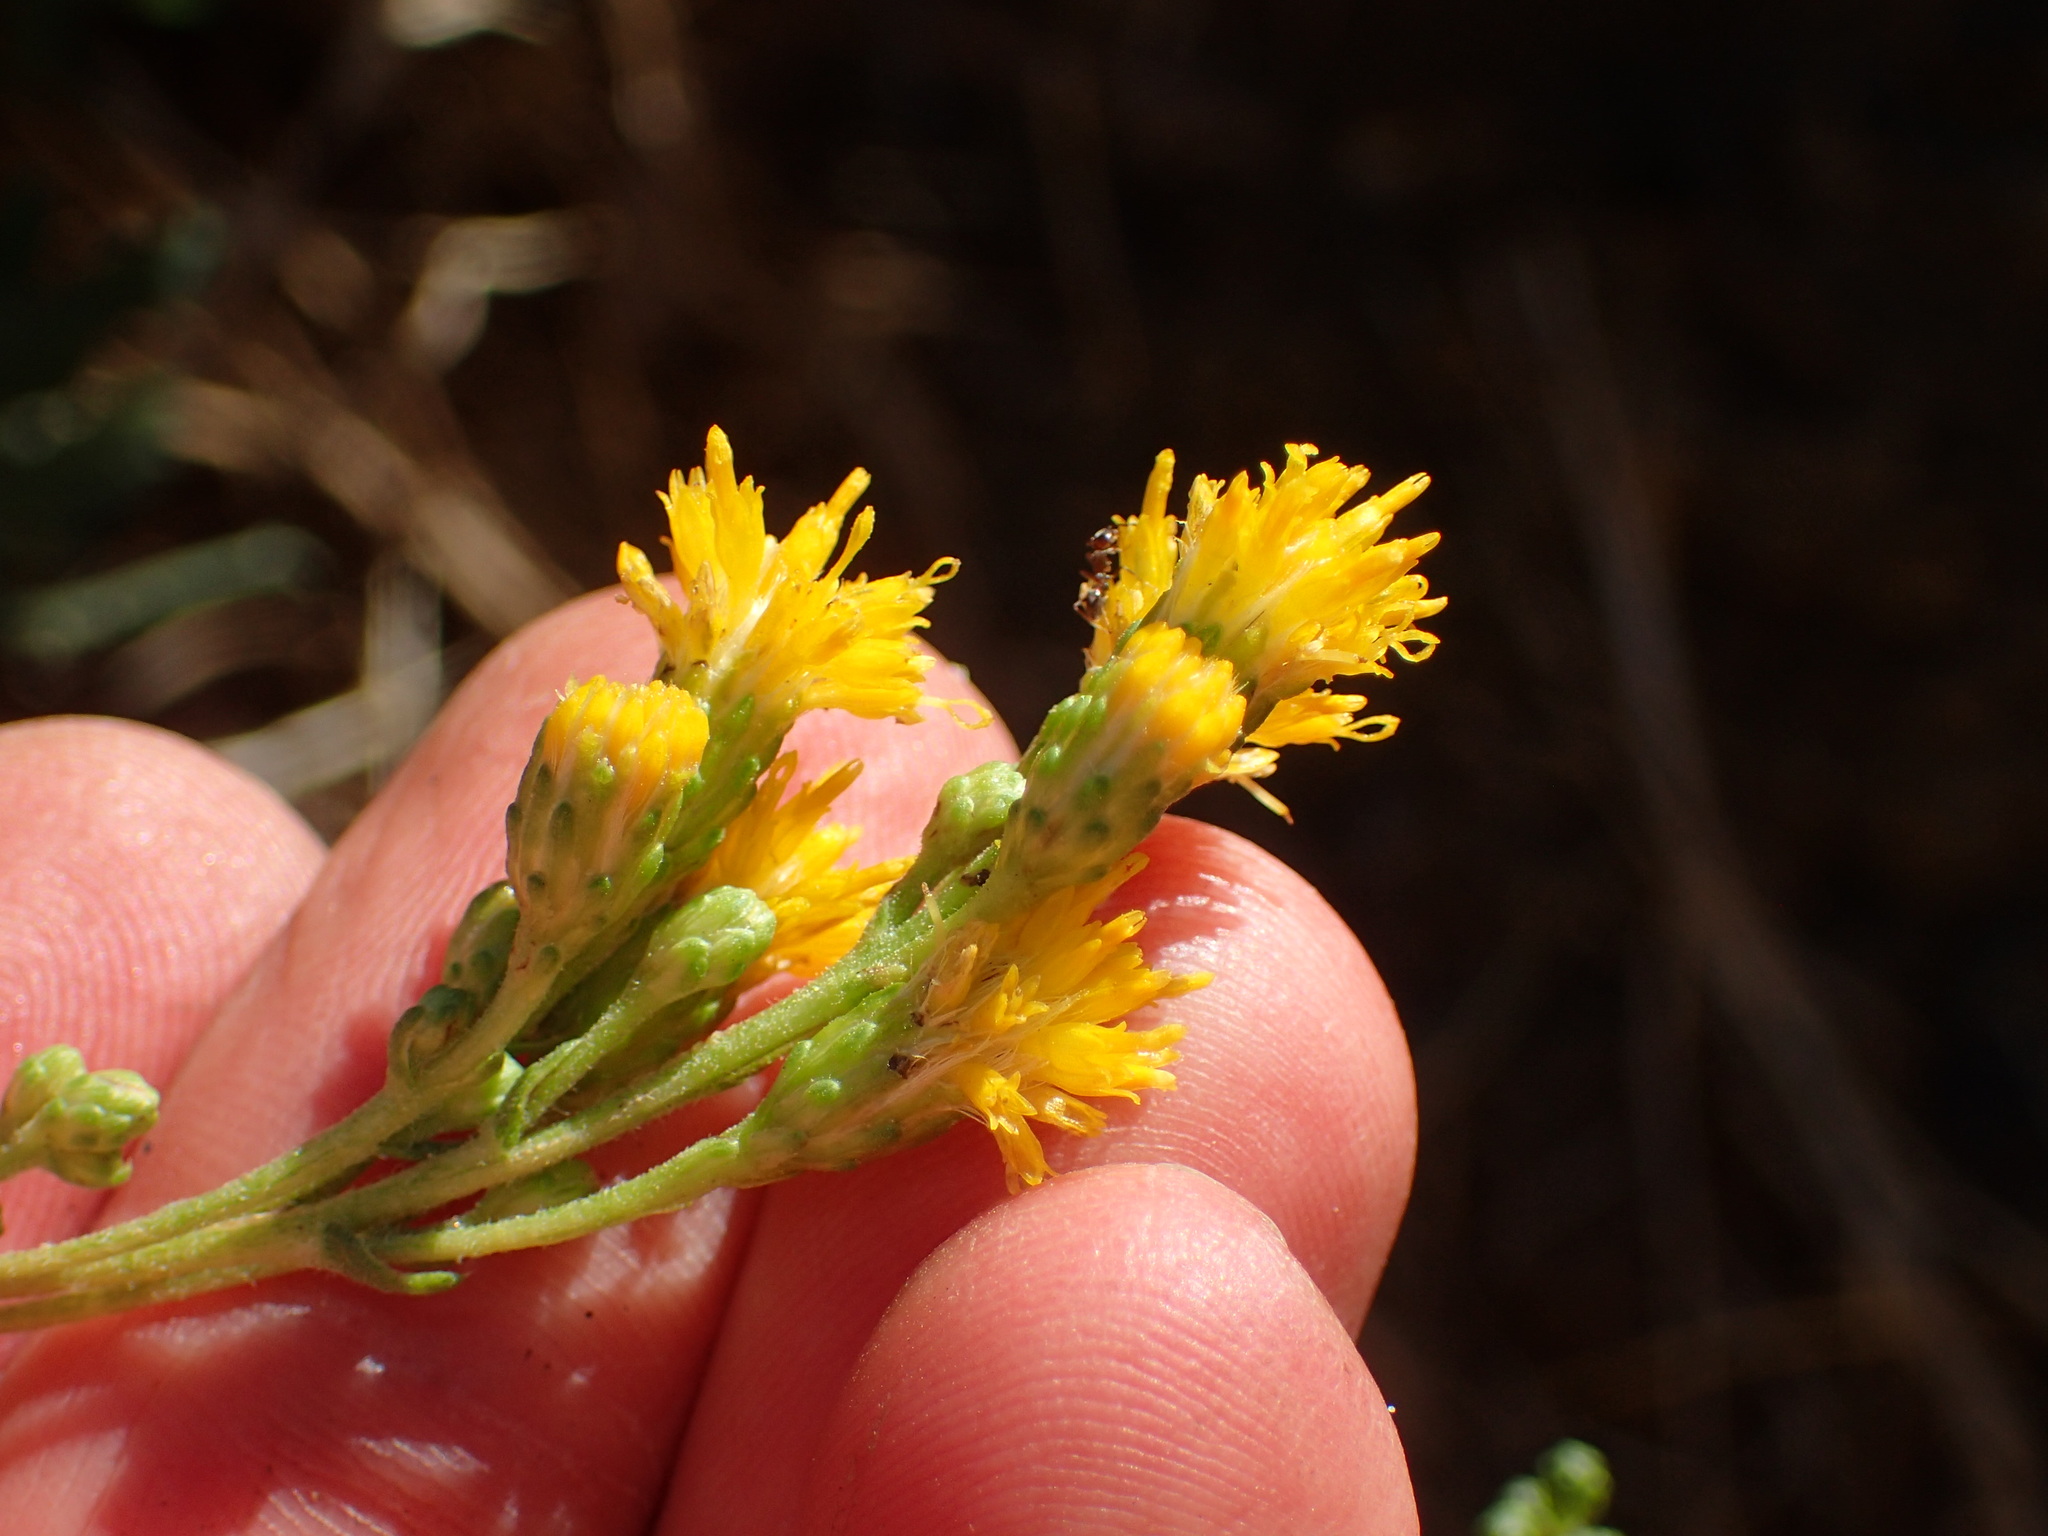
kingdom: Plantae
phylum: Tracheophyta
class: Magnoliopsida
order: Asterales
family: Asteraceae
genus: Isocoma
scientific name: Isocoma menziesii
